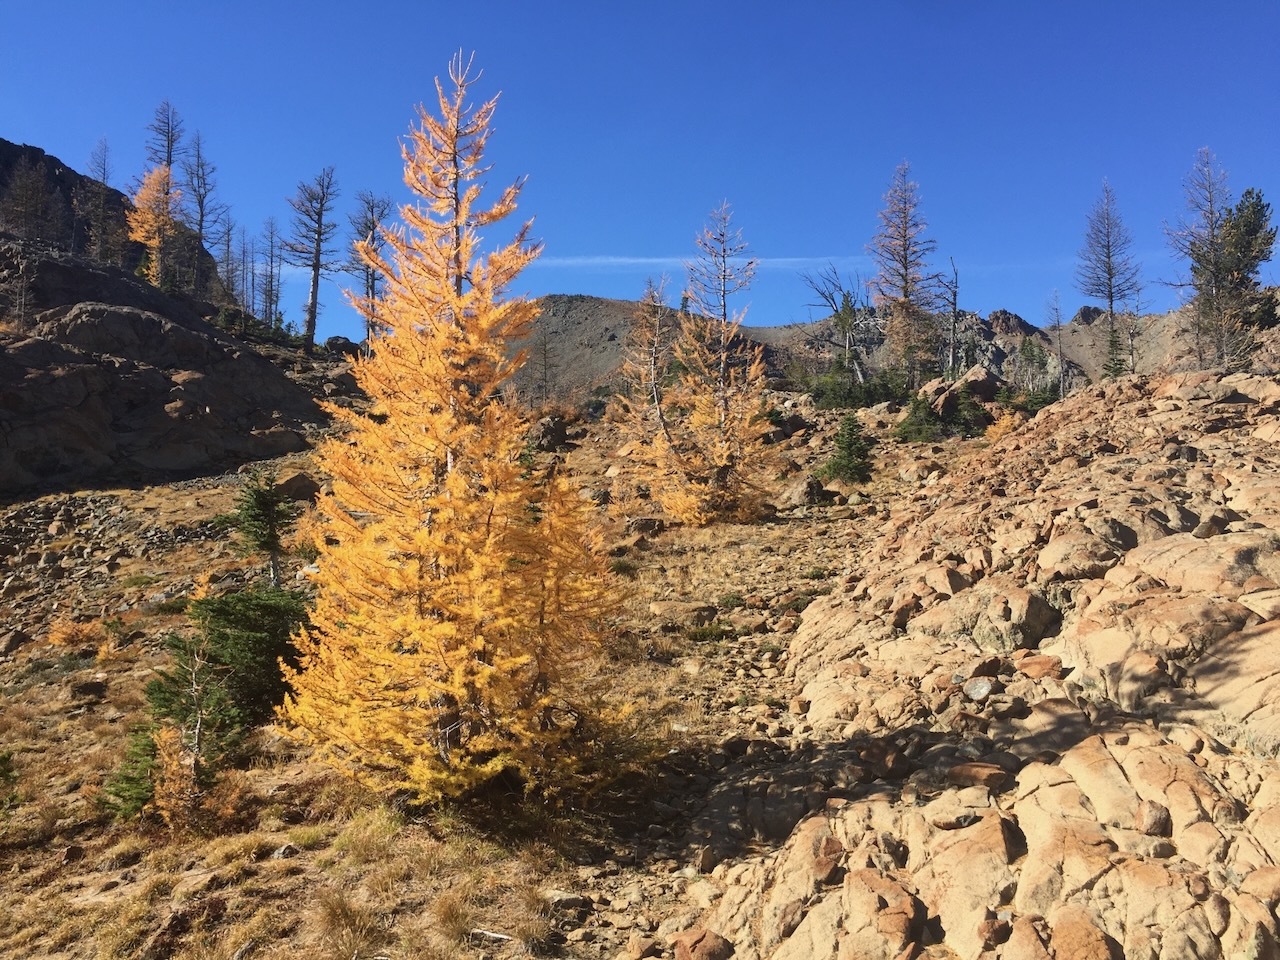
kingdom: Plantae
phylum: Tracheophyta
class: Pinopsida
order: Pinales
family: Pinaceae
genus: Larix
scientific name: Larix lyallii
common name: Alpine larch
